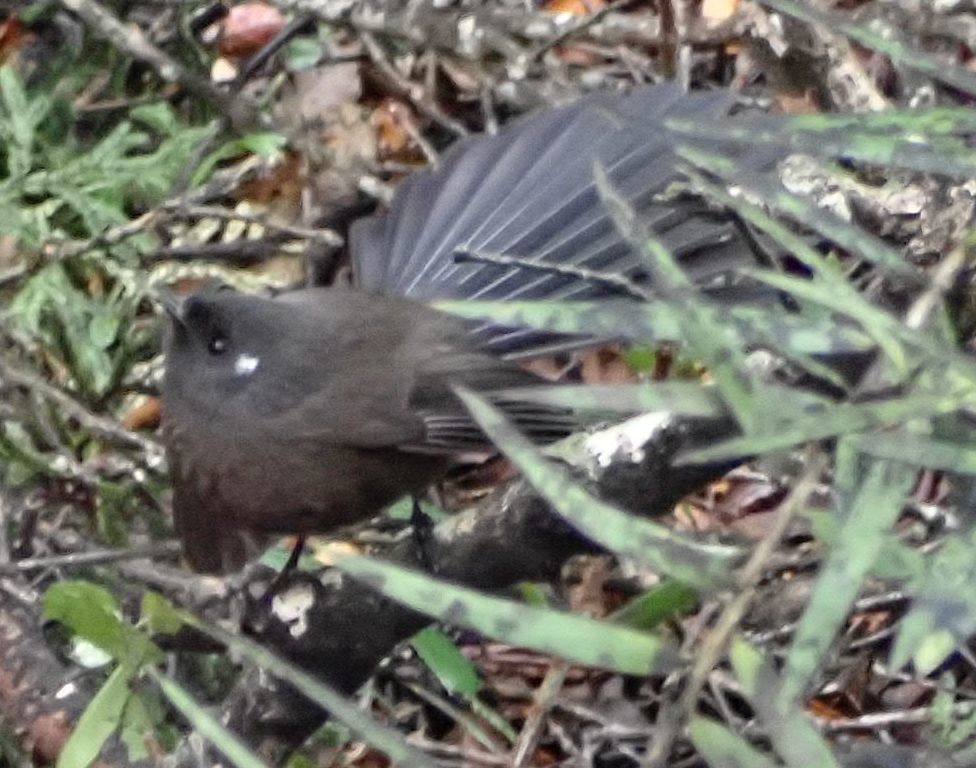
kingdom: Animalia
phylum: Chordata
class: Aves
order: Passeriformes
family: Rhipiduridae
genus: Rhipidura
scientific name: Rhipidura fuliginosa
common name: New zealand fantail
